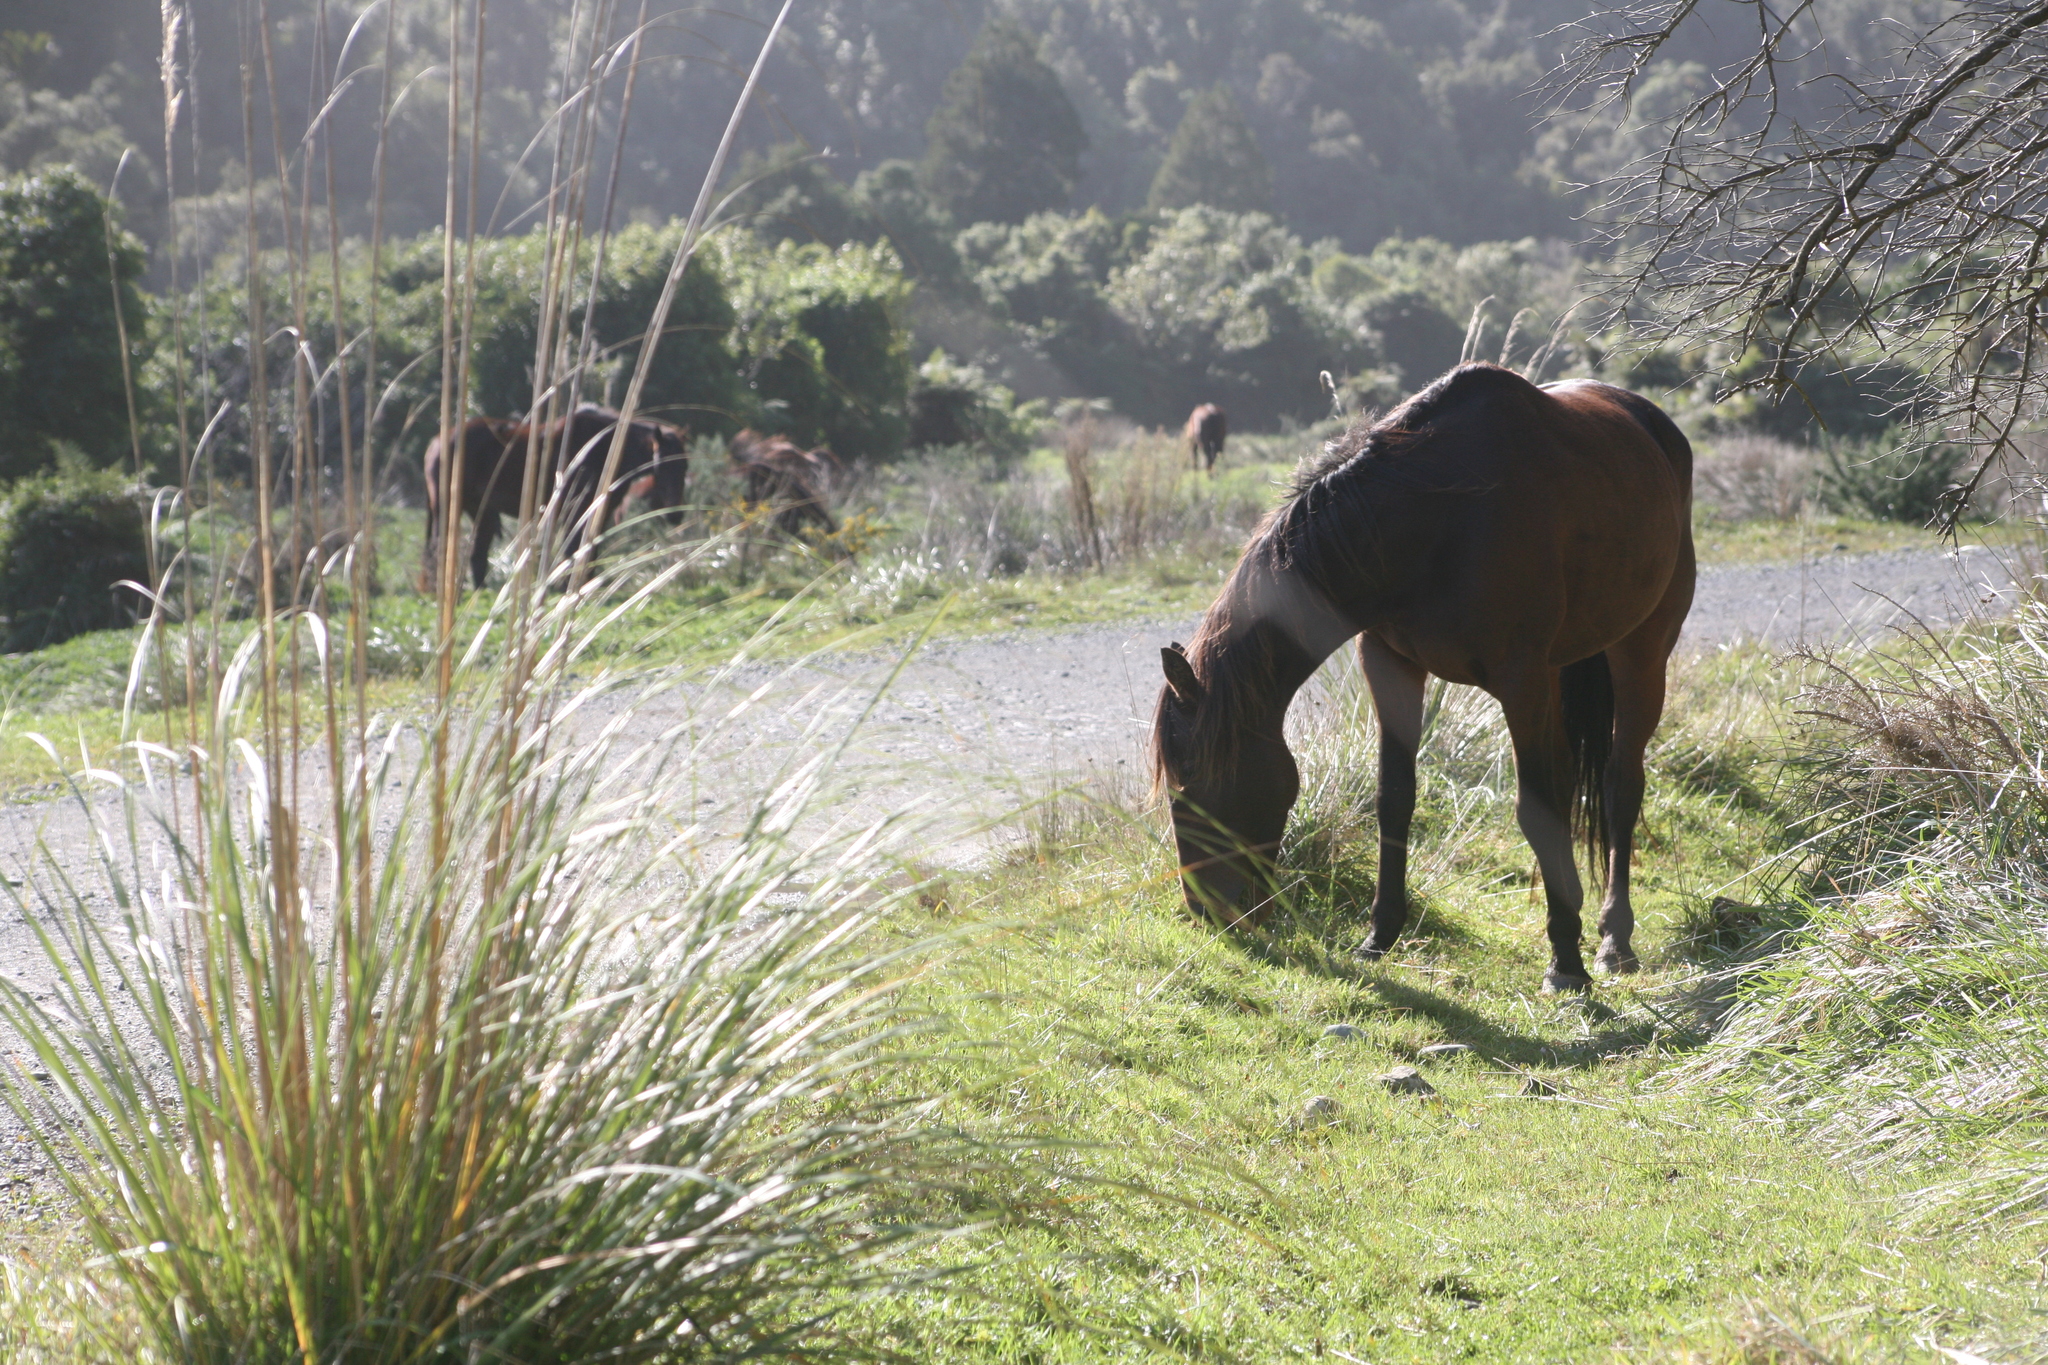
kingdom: Animalia
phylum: Chordata
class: Mammalia
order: Perissodactyla
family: Equidae
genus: Equus
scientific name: Equus caballus
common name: Horse
